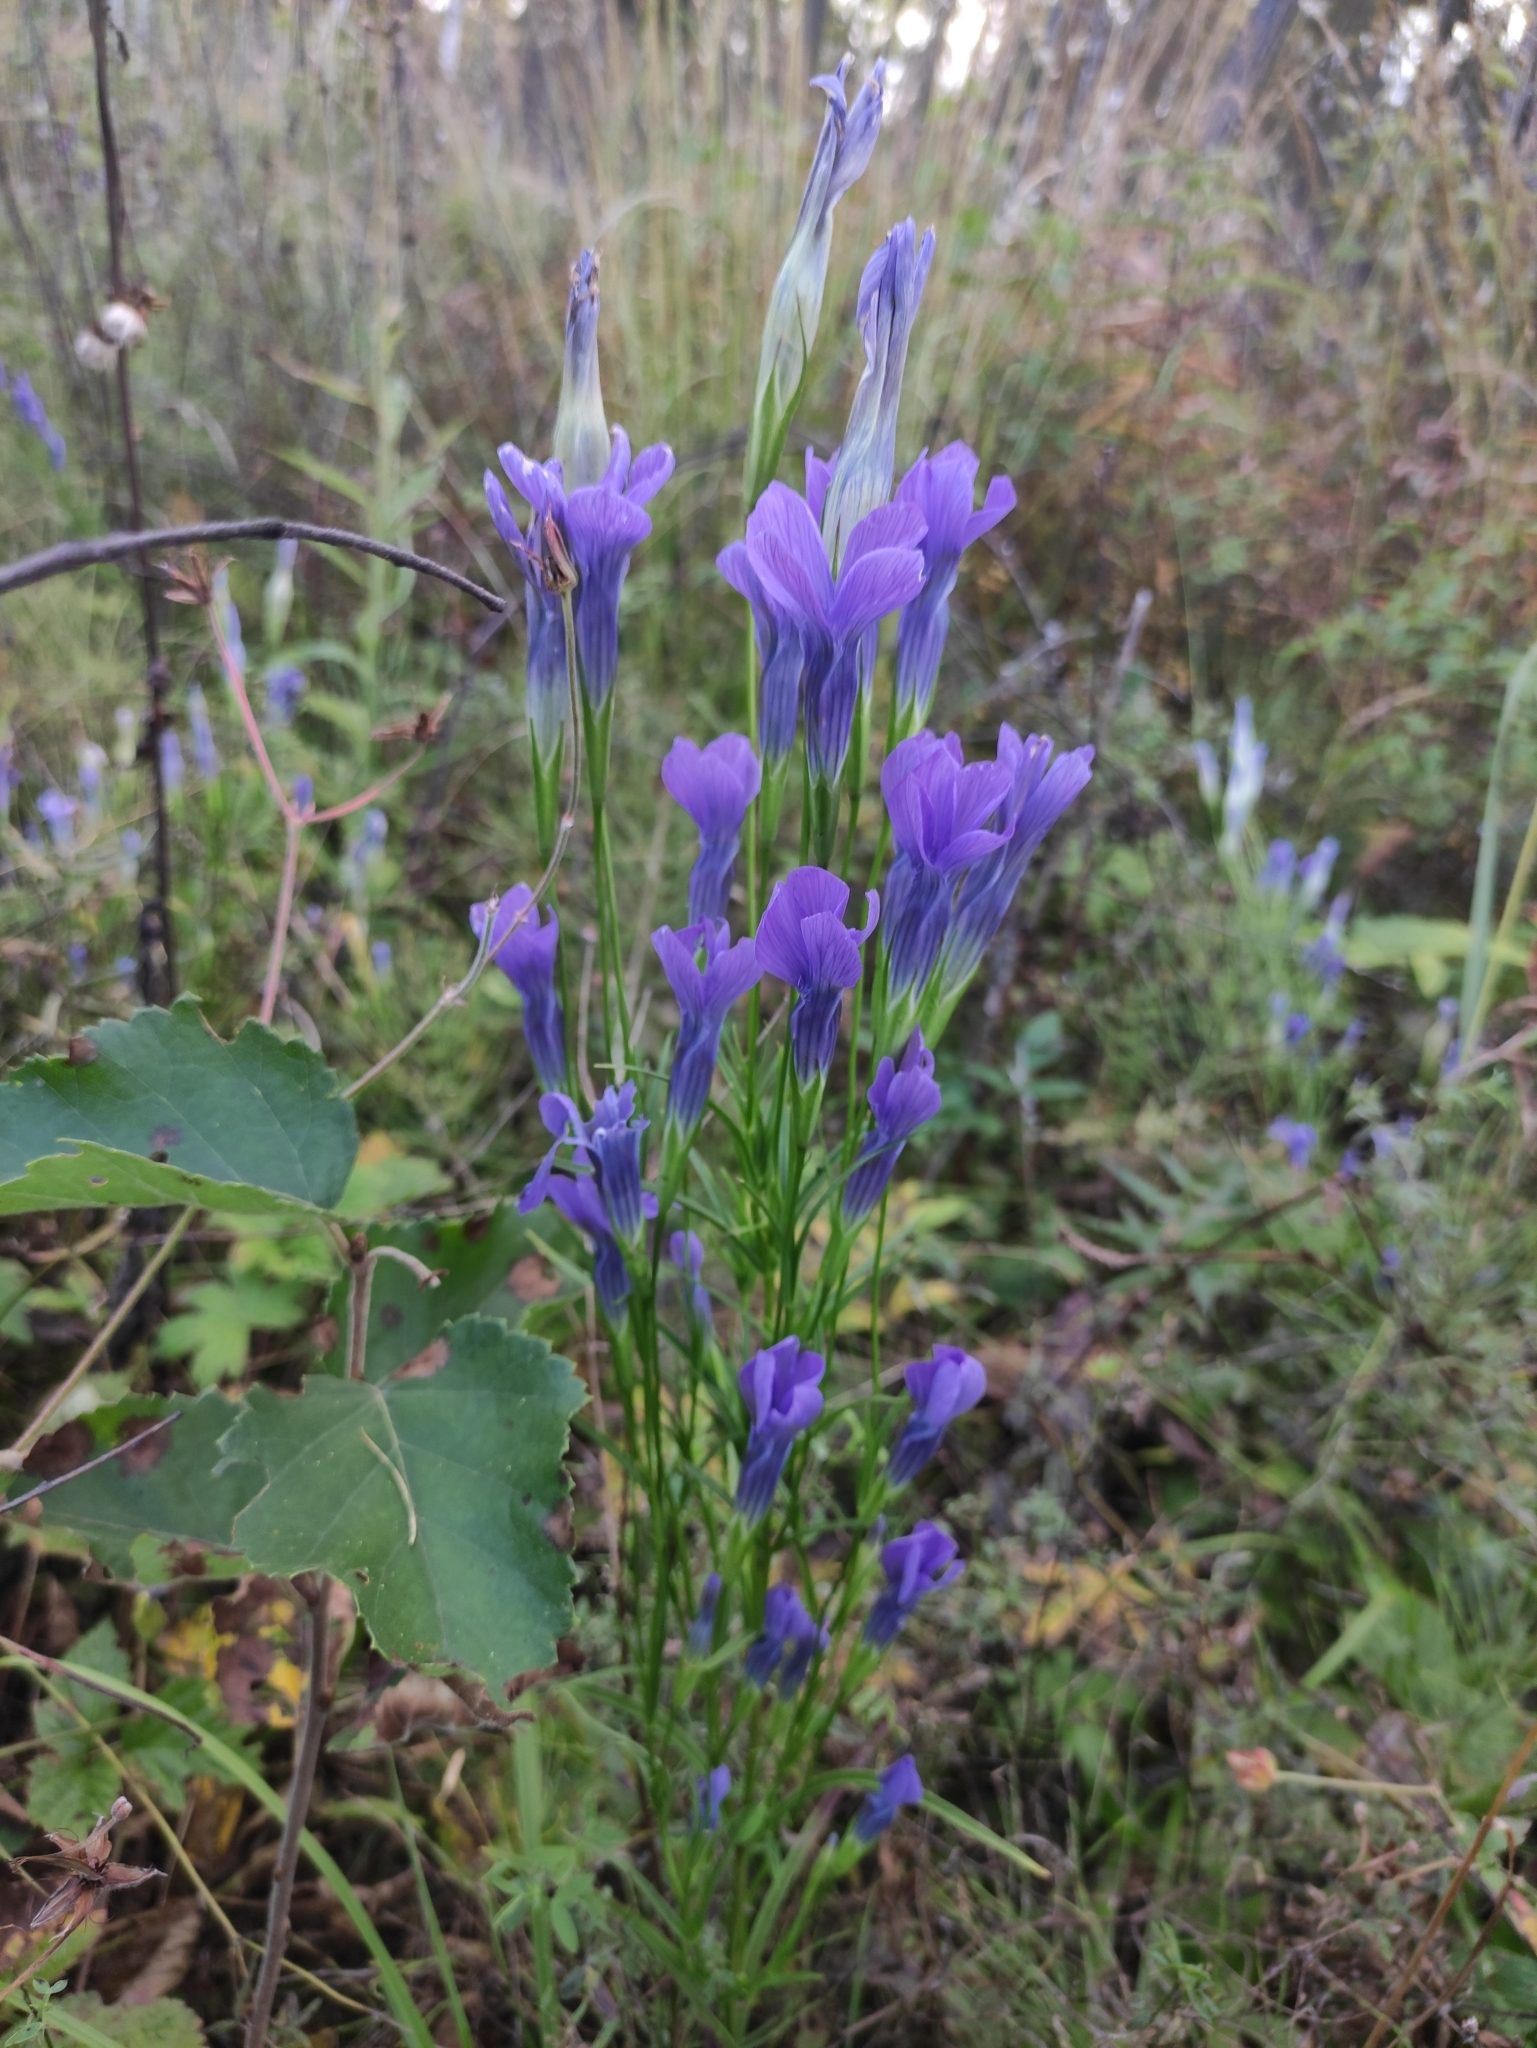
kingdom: Plantae
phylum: Tracheophyta
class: Magnoliopsida
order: Gentianales
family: Gentianaceae
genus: Gentianopsis
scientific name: Gentianopsis barbata
